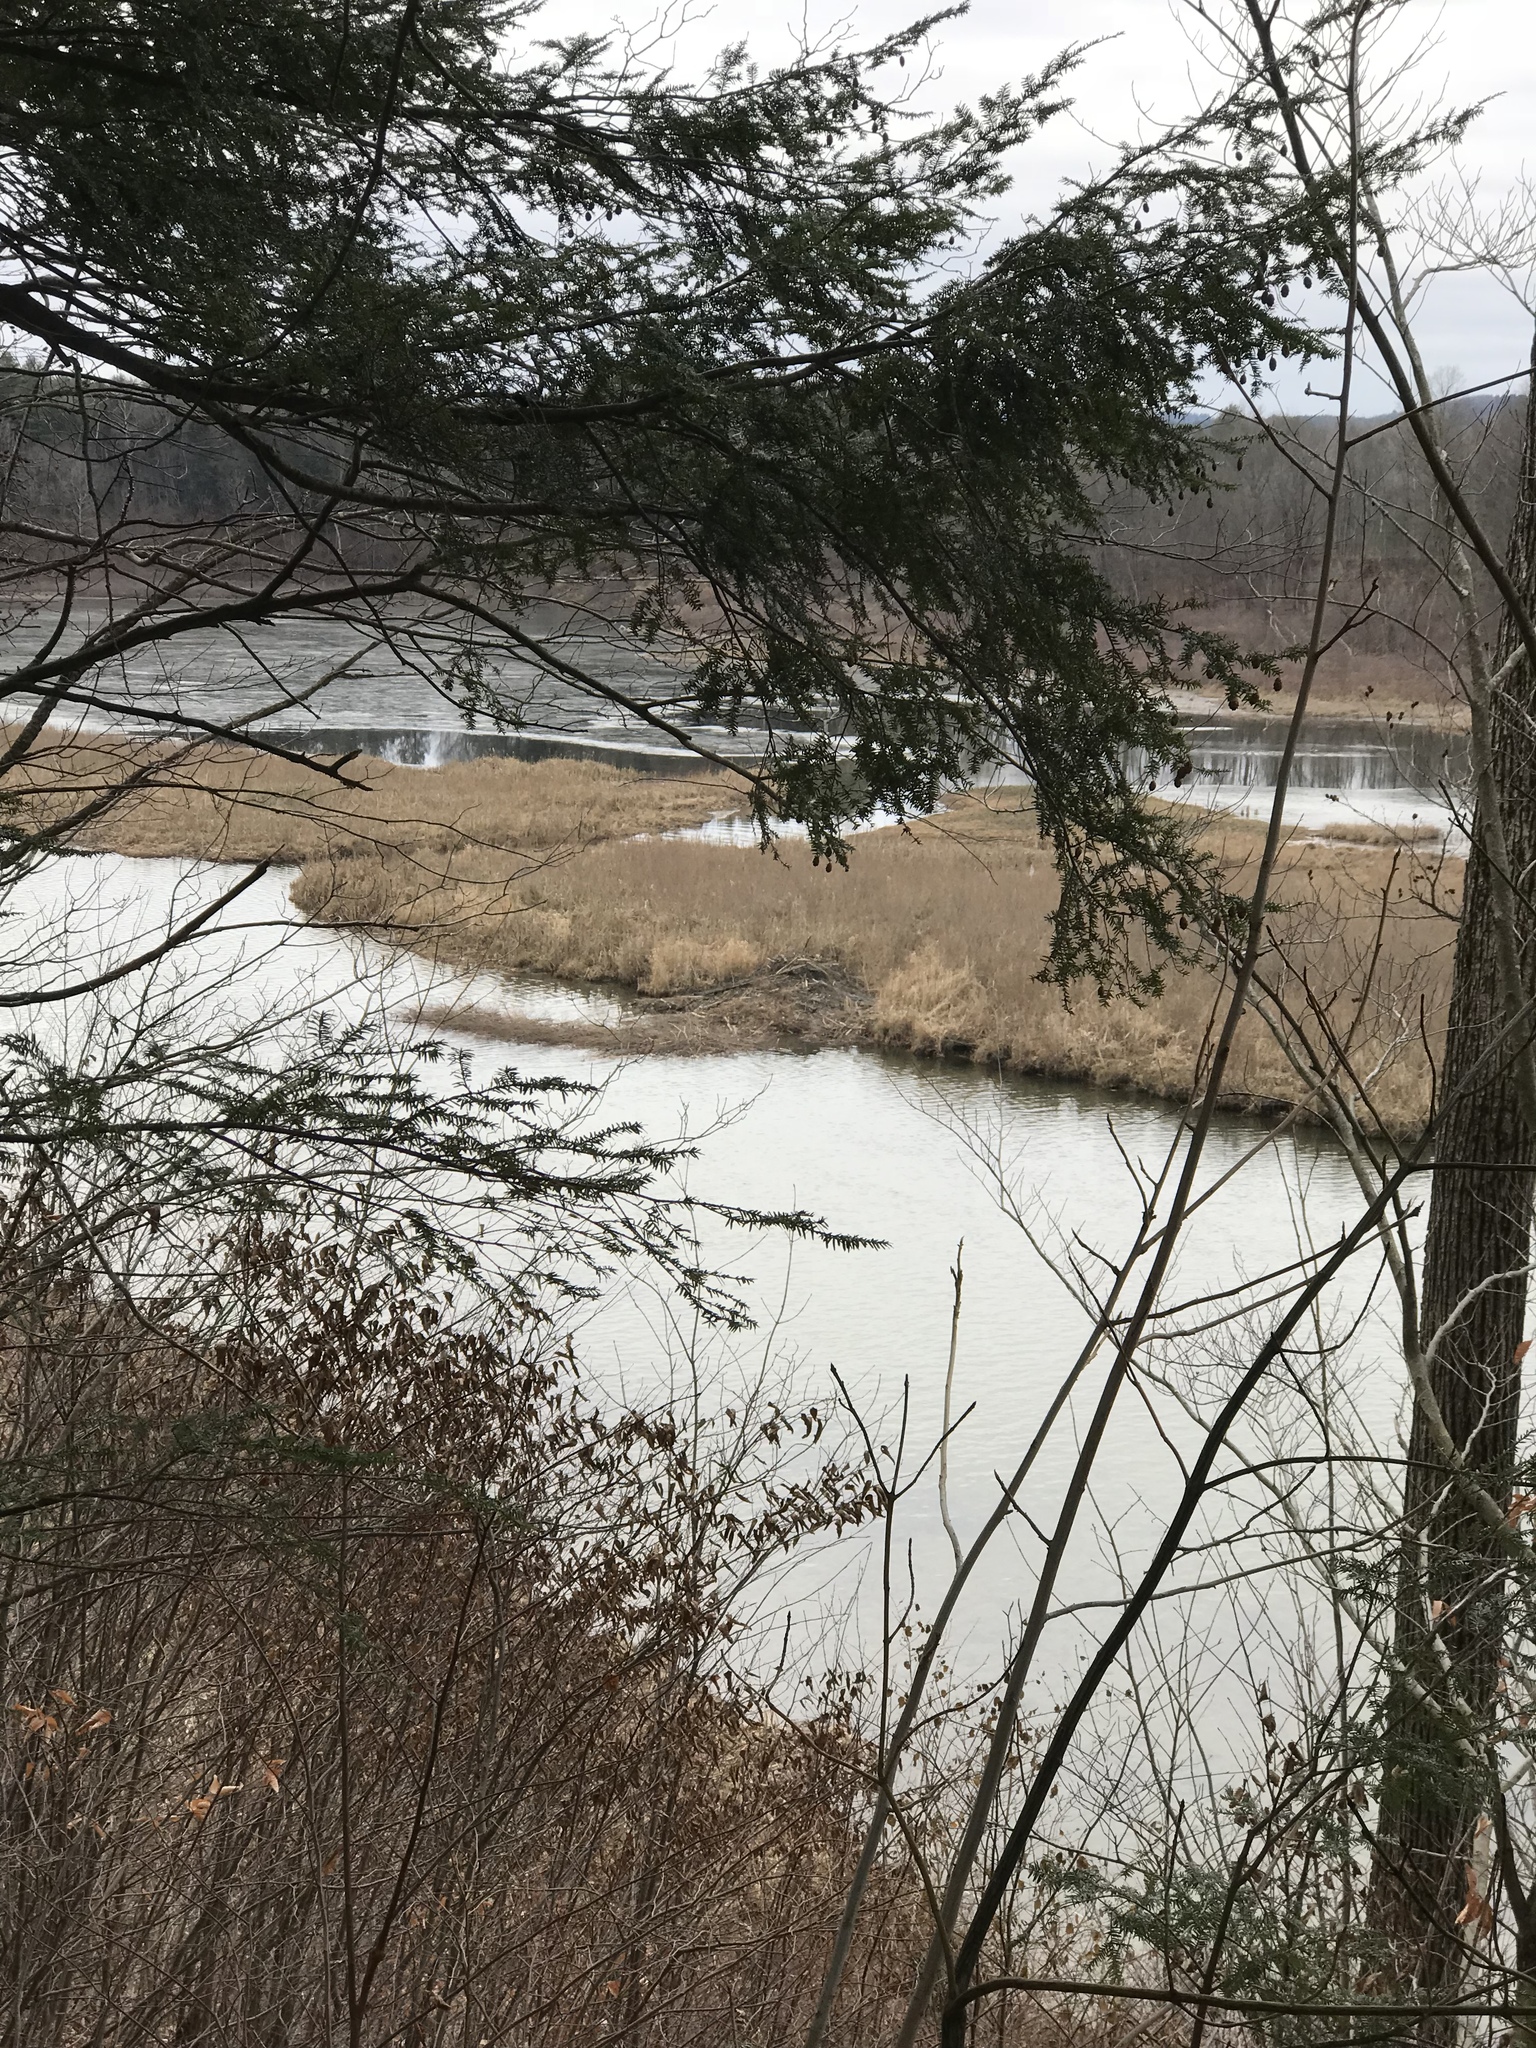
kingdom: Animalia
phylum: Chordata
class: Mammalia
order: Rodentia
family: Castoridae
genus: Castor
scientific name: Castor canadensis
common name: American beaver
